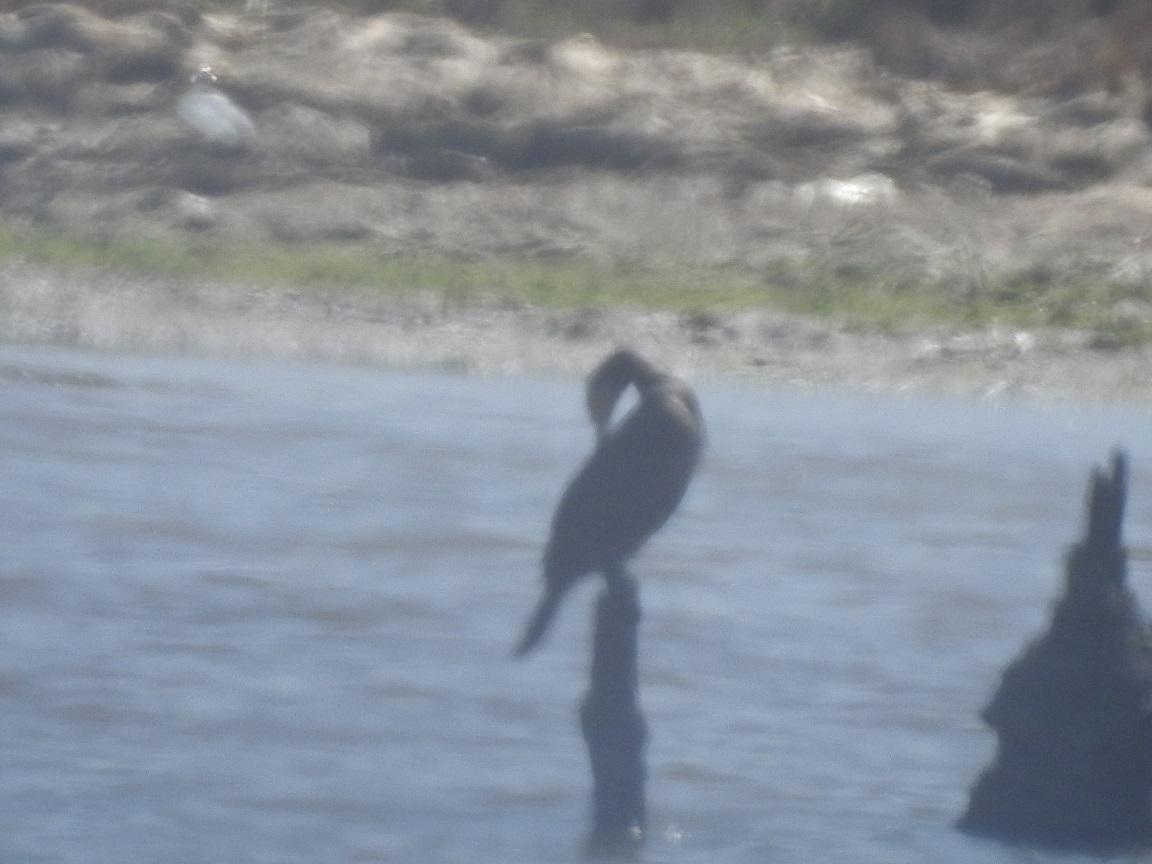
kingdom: Animalia
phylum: Chordata
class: Aves
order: Suliformes
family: Phalacrocoracidae
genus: Phalacrocorax
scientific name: Phalacrocorax carbo
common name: Great cormorant
